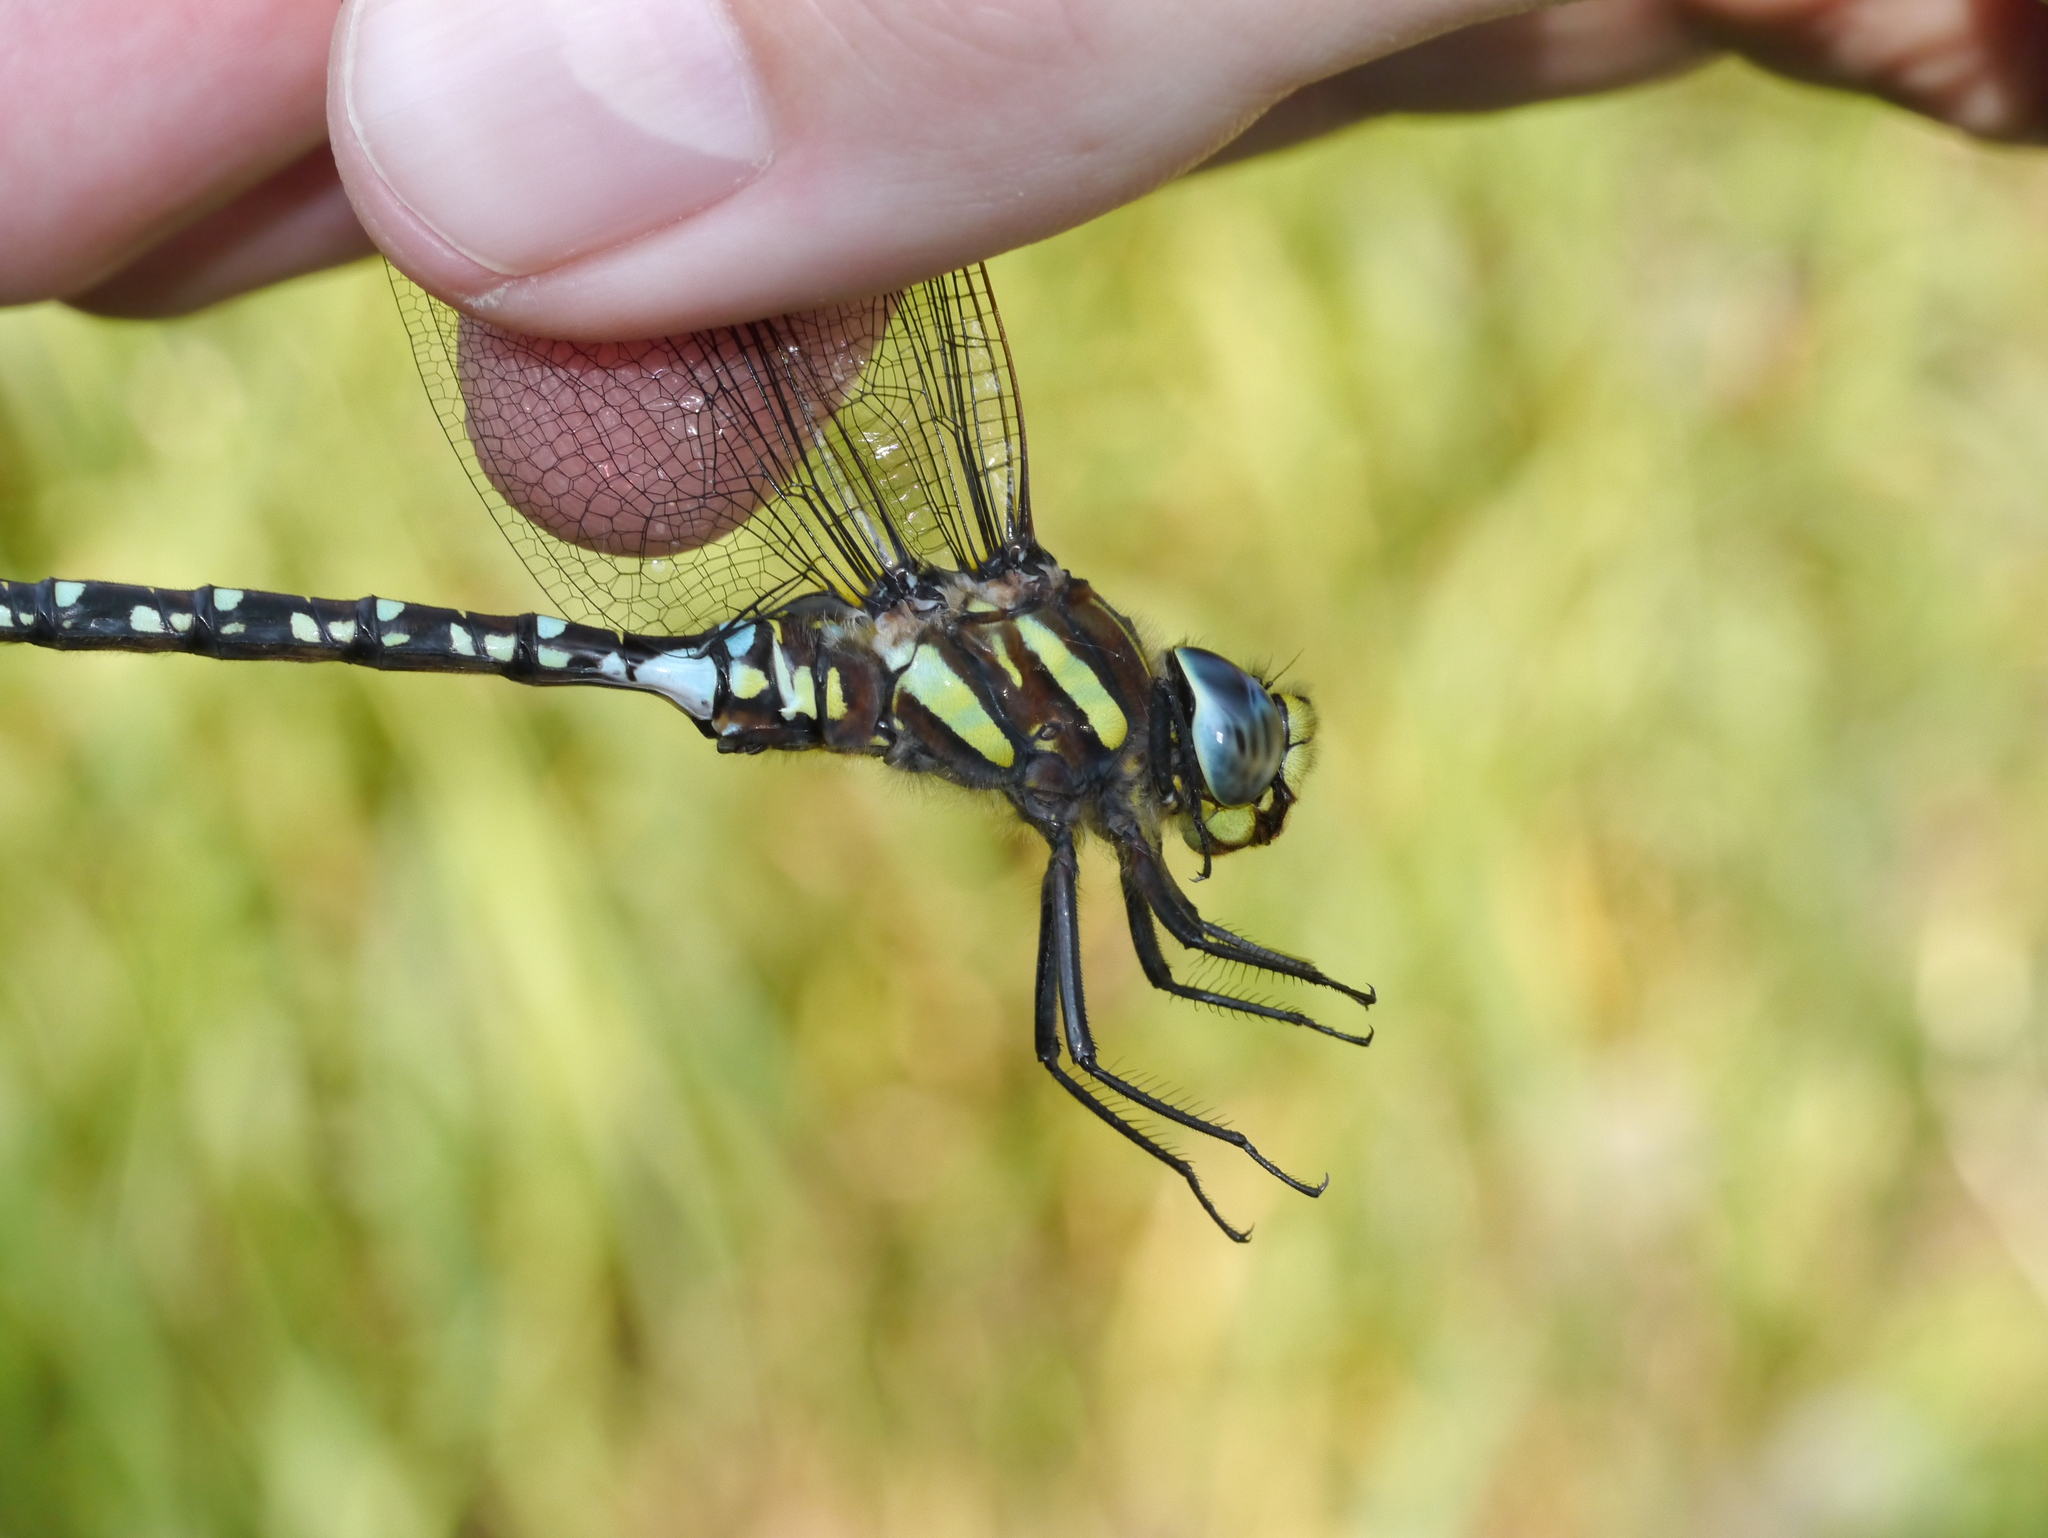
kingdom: Animalia
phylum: Arthropoda
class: Insecta
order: Odonata
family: Aeshnidae
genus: Aeshna
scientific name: Aeshna juncea
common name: Moorland hawker
